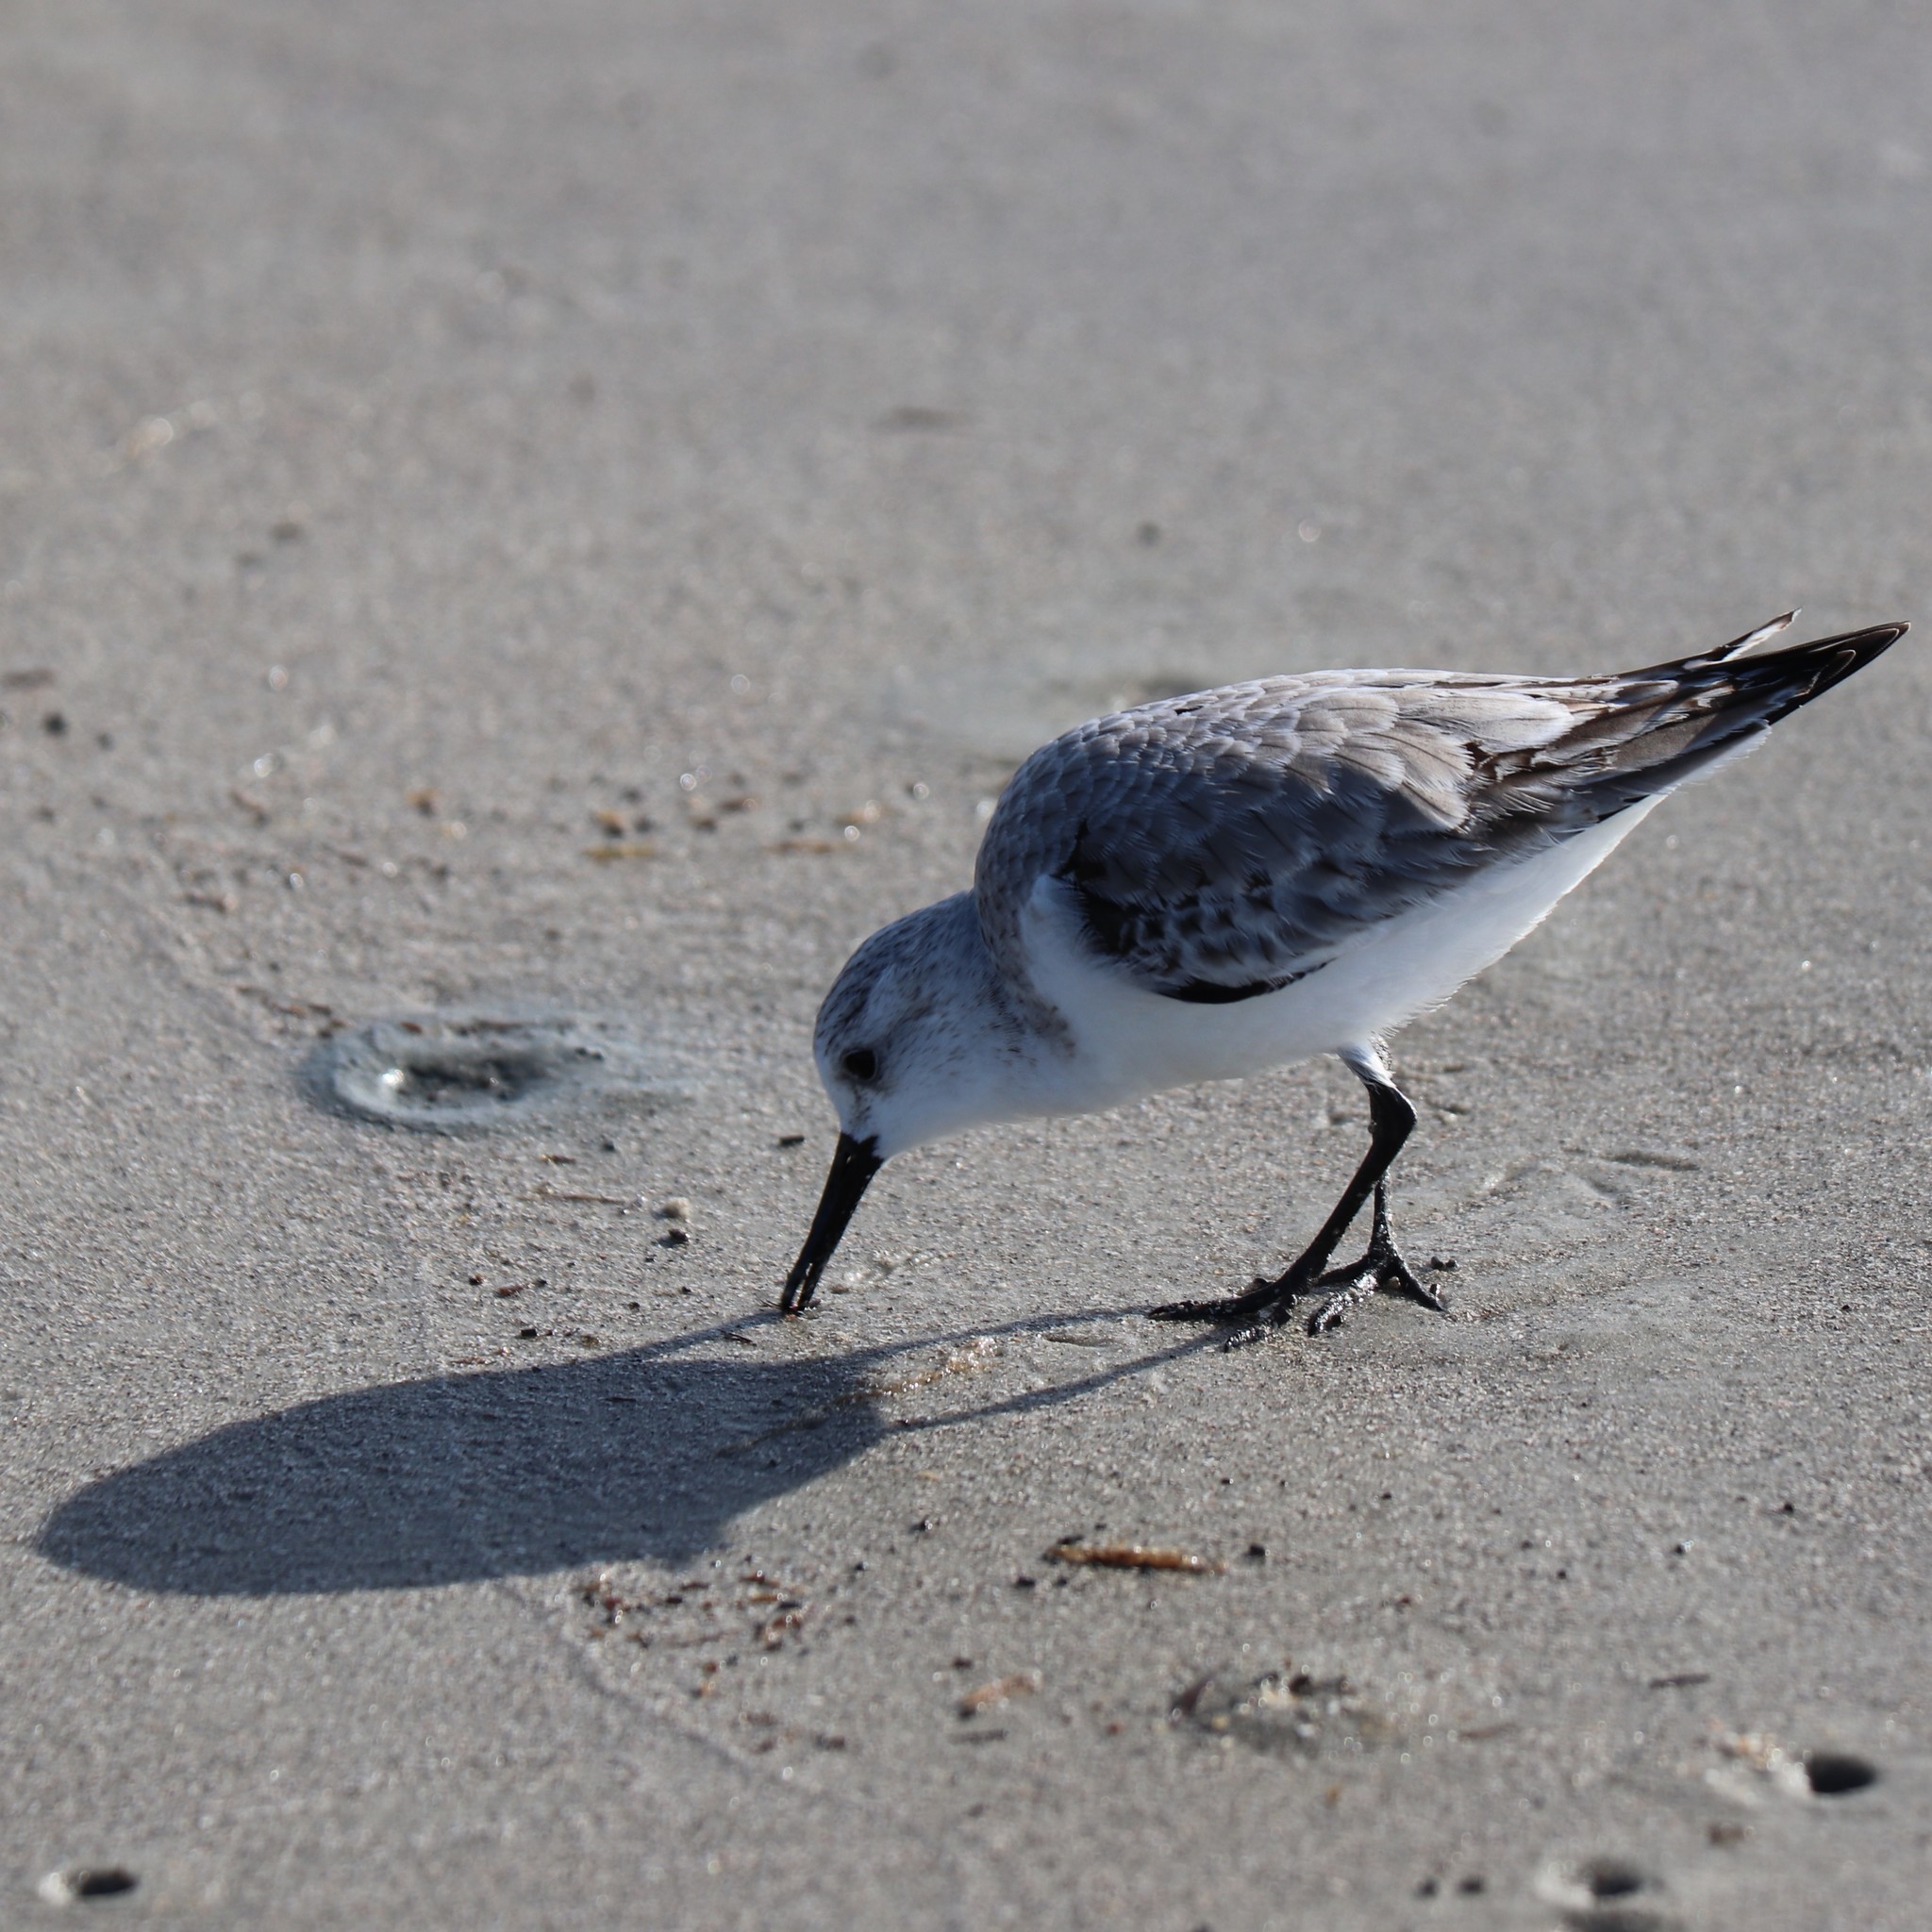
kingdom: Animalia
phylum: Chordata
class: Aves
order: Charadriiformes
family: Scolopacidae
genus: Calidris
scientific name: Calidris alba
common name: Sanderling
